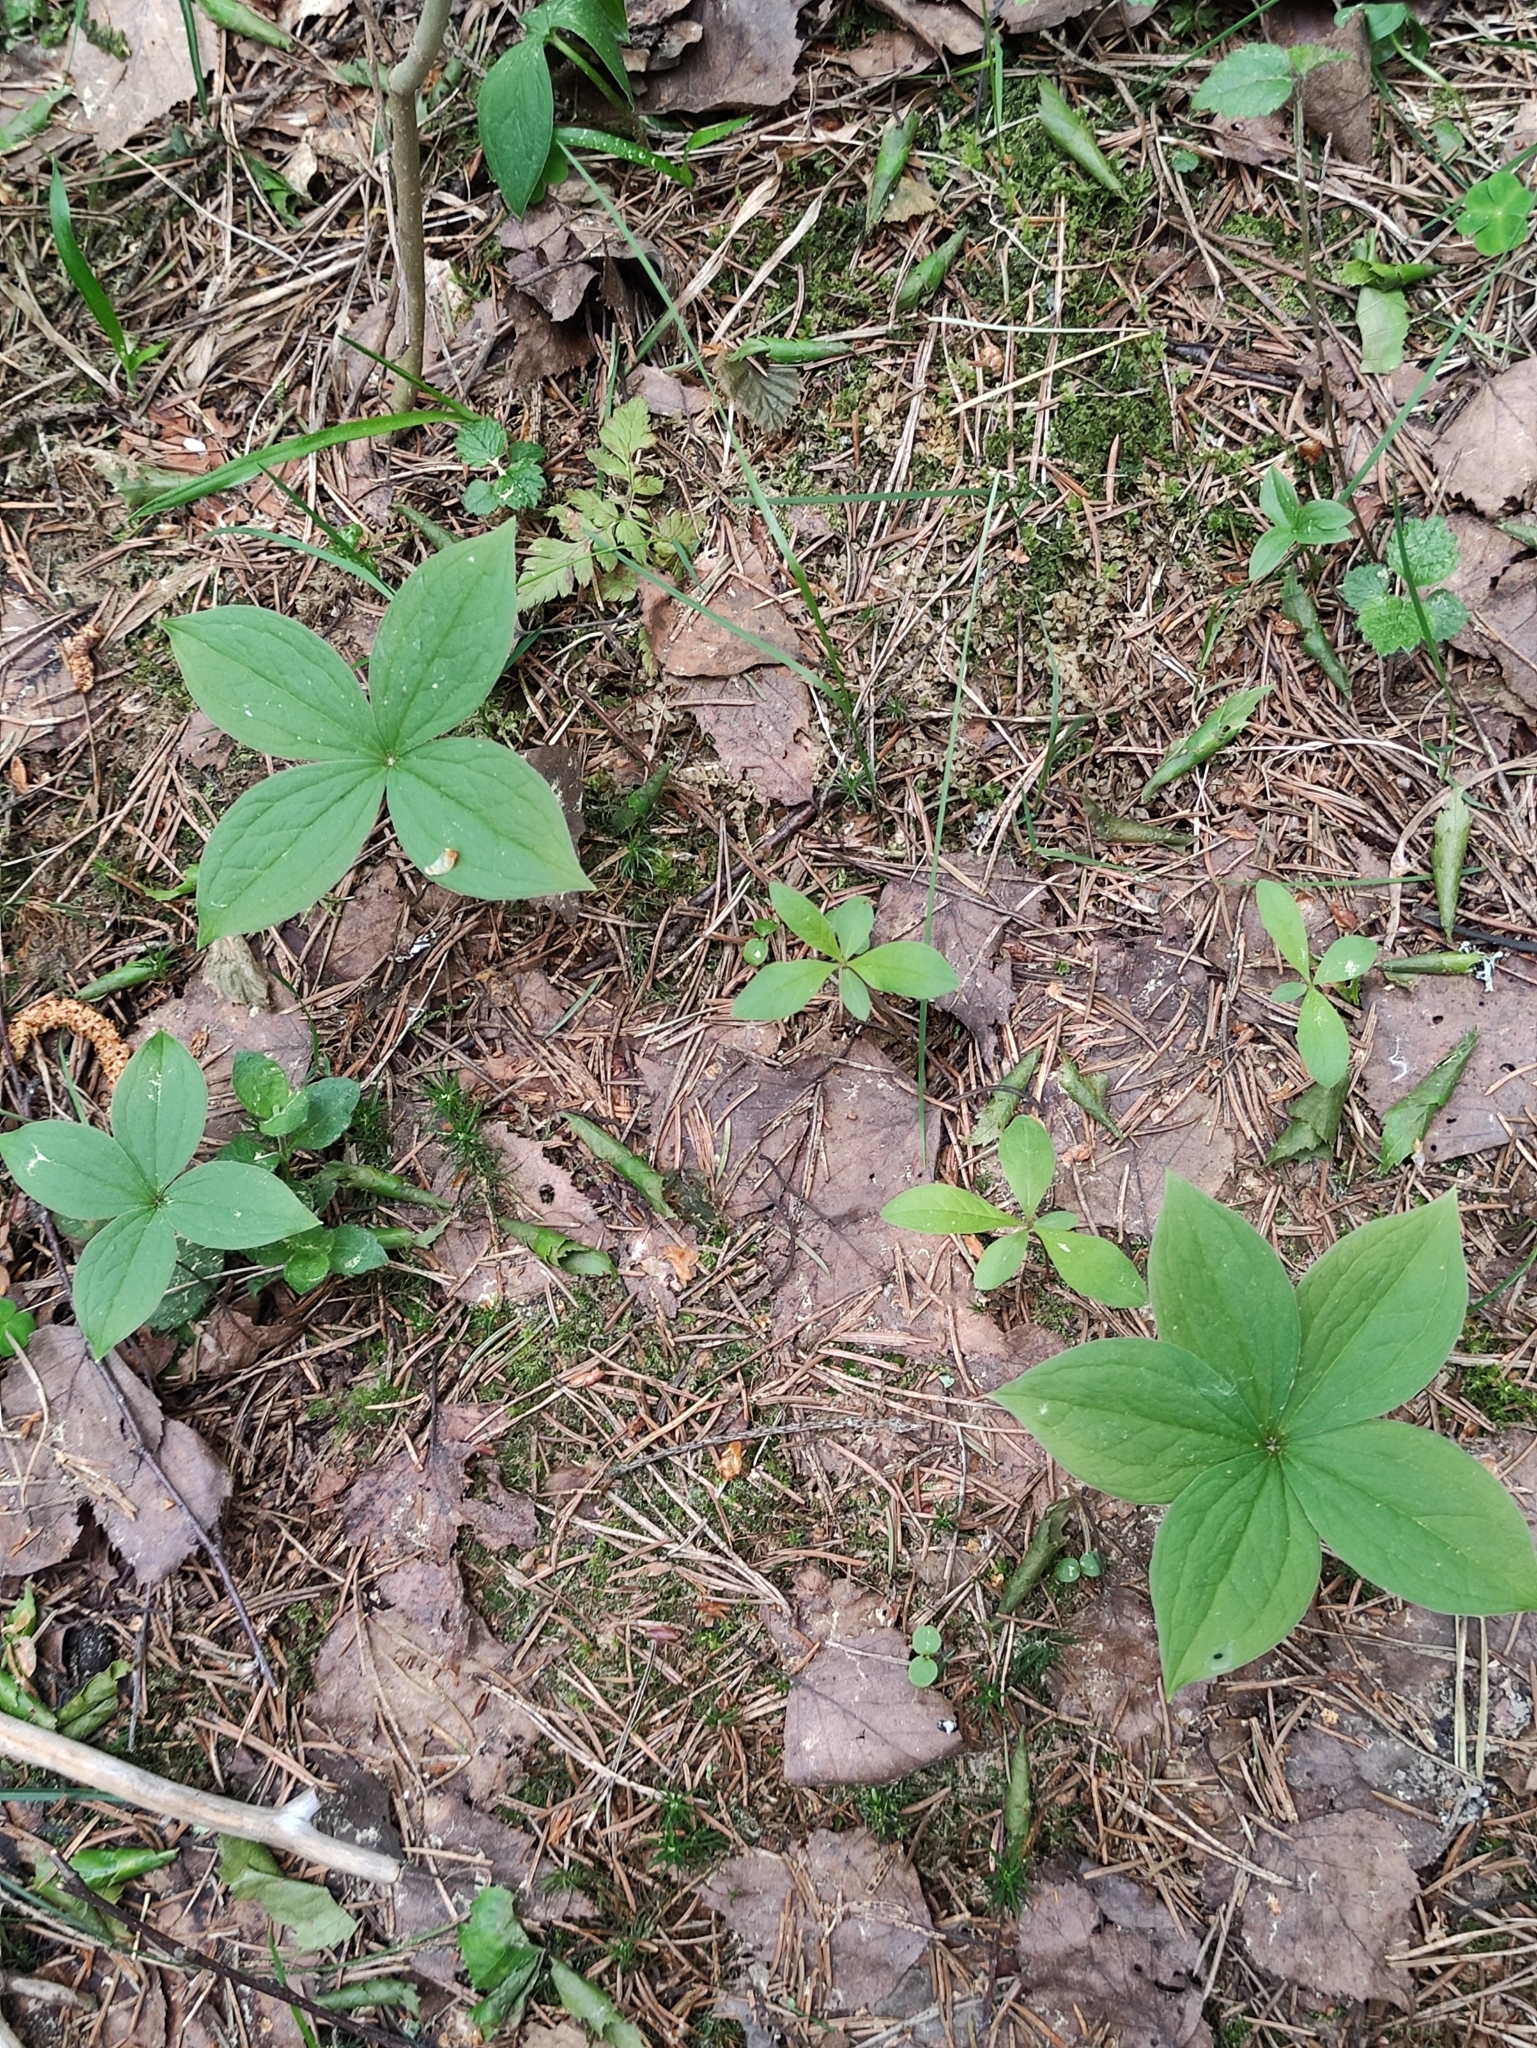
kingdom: Plantae
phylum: Tracheophyta
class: Liliopsida
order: Liliales
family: Melanthiaceae
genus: Paris
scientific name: Paris quadrifolia
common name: Herb-paris
